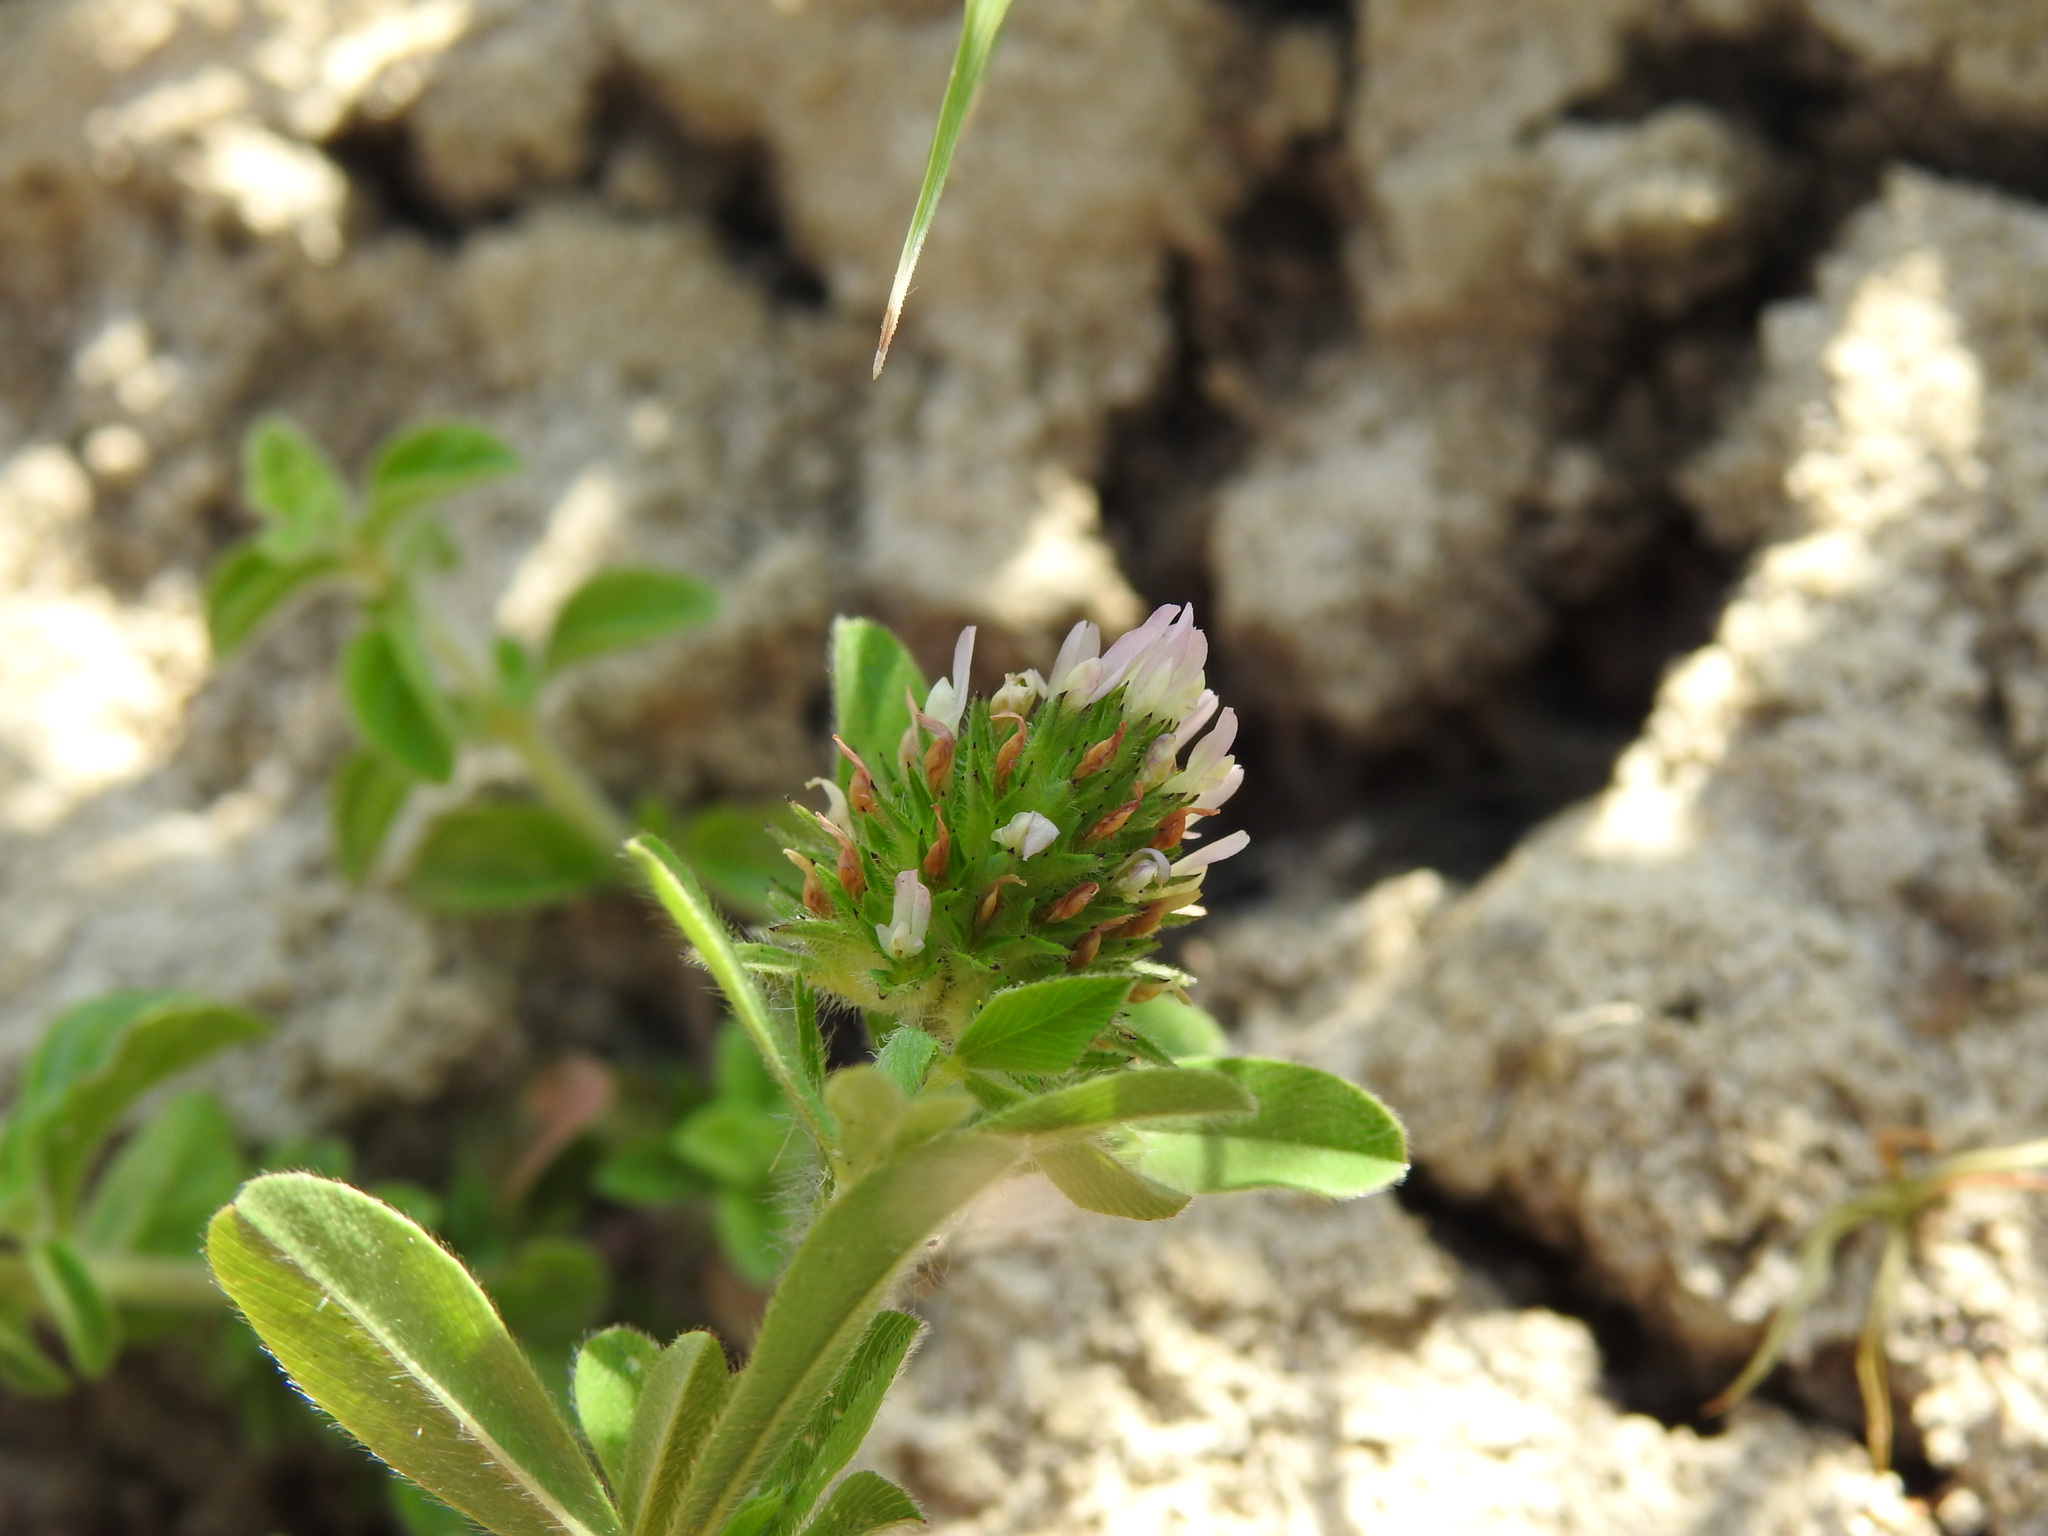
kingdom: Plantae
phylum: Tracheophyta
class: Magnoliopsida
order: Fabales
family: Fabaceae
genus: Trifolium
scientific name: Trifolium squamosum
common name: Sea clover
